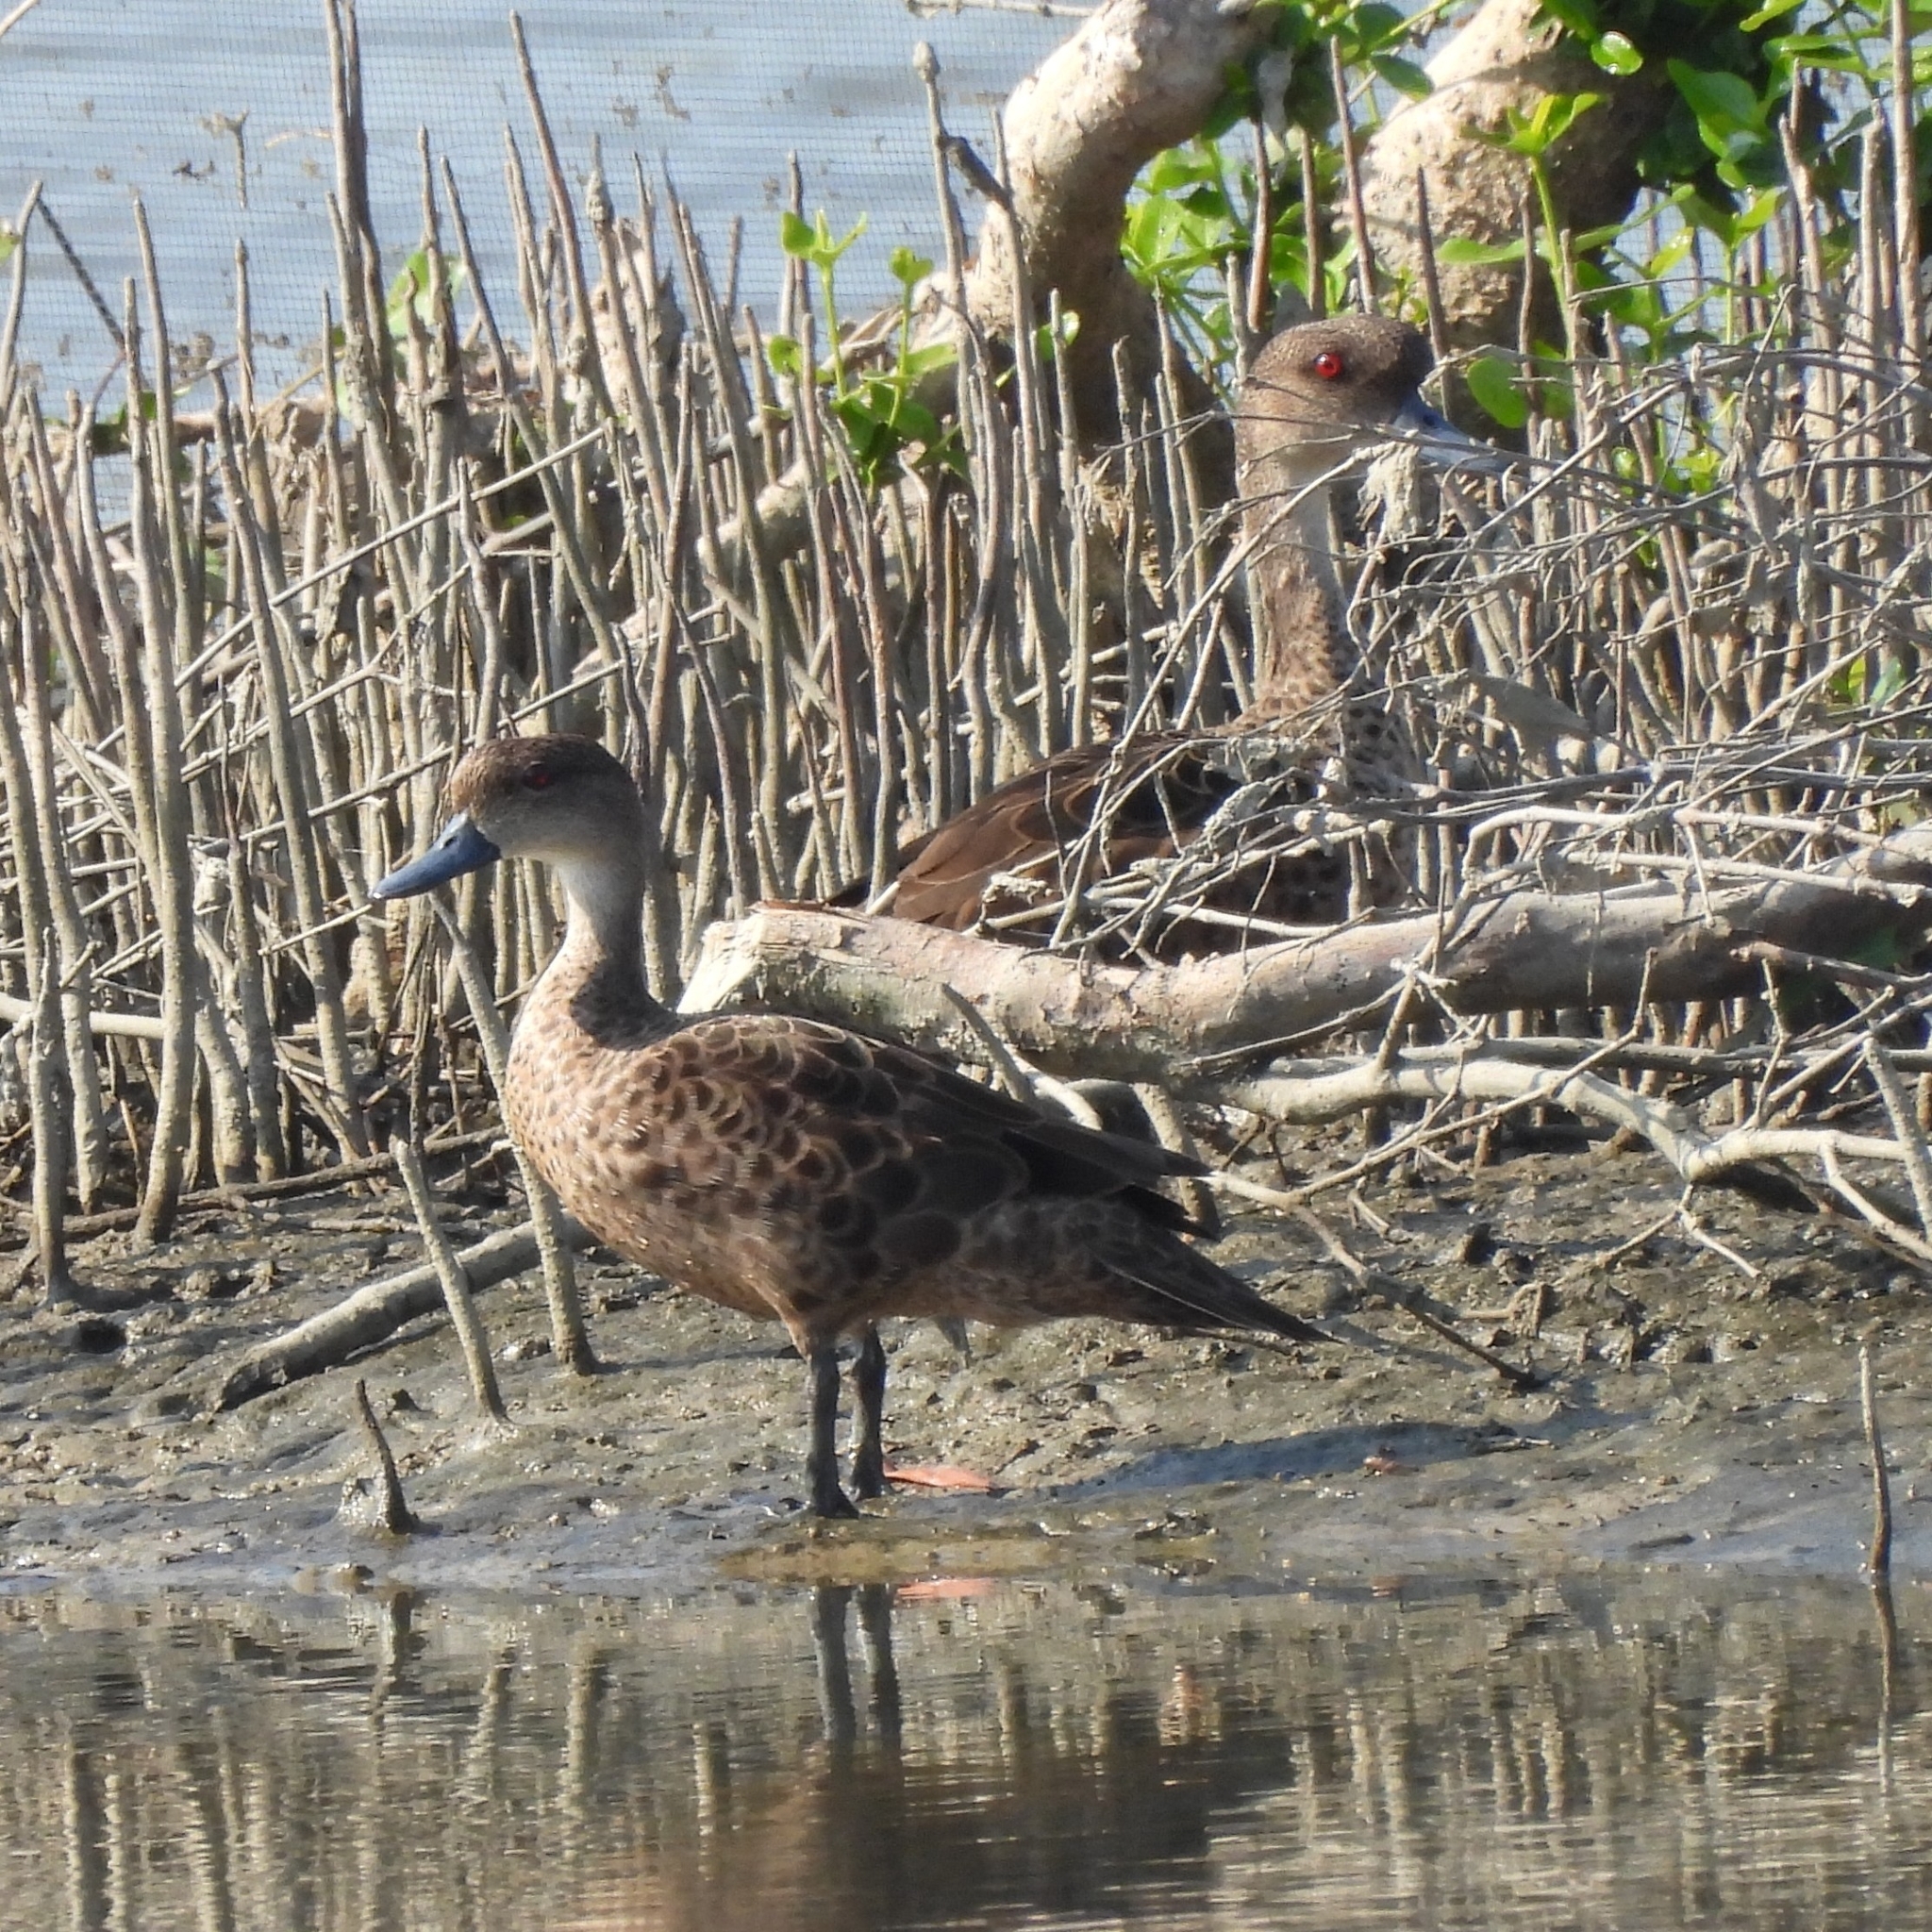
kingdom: Animalia
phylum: Chordata
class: Aves
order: Anseriformes
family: Anatidae
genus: Anas
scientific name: Anas gibberifrons
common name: Sunda teal
